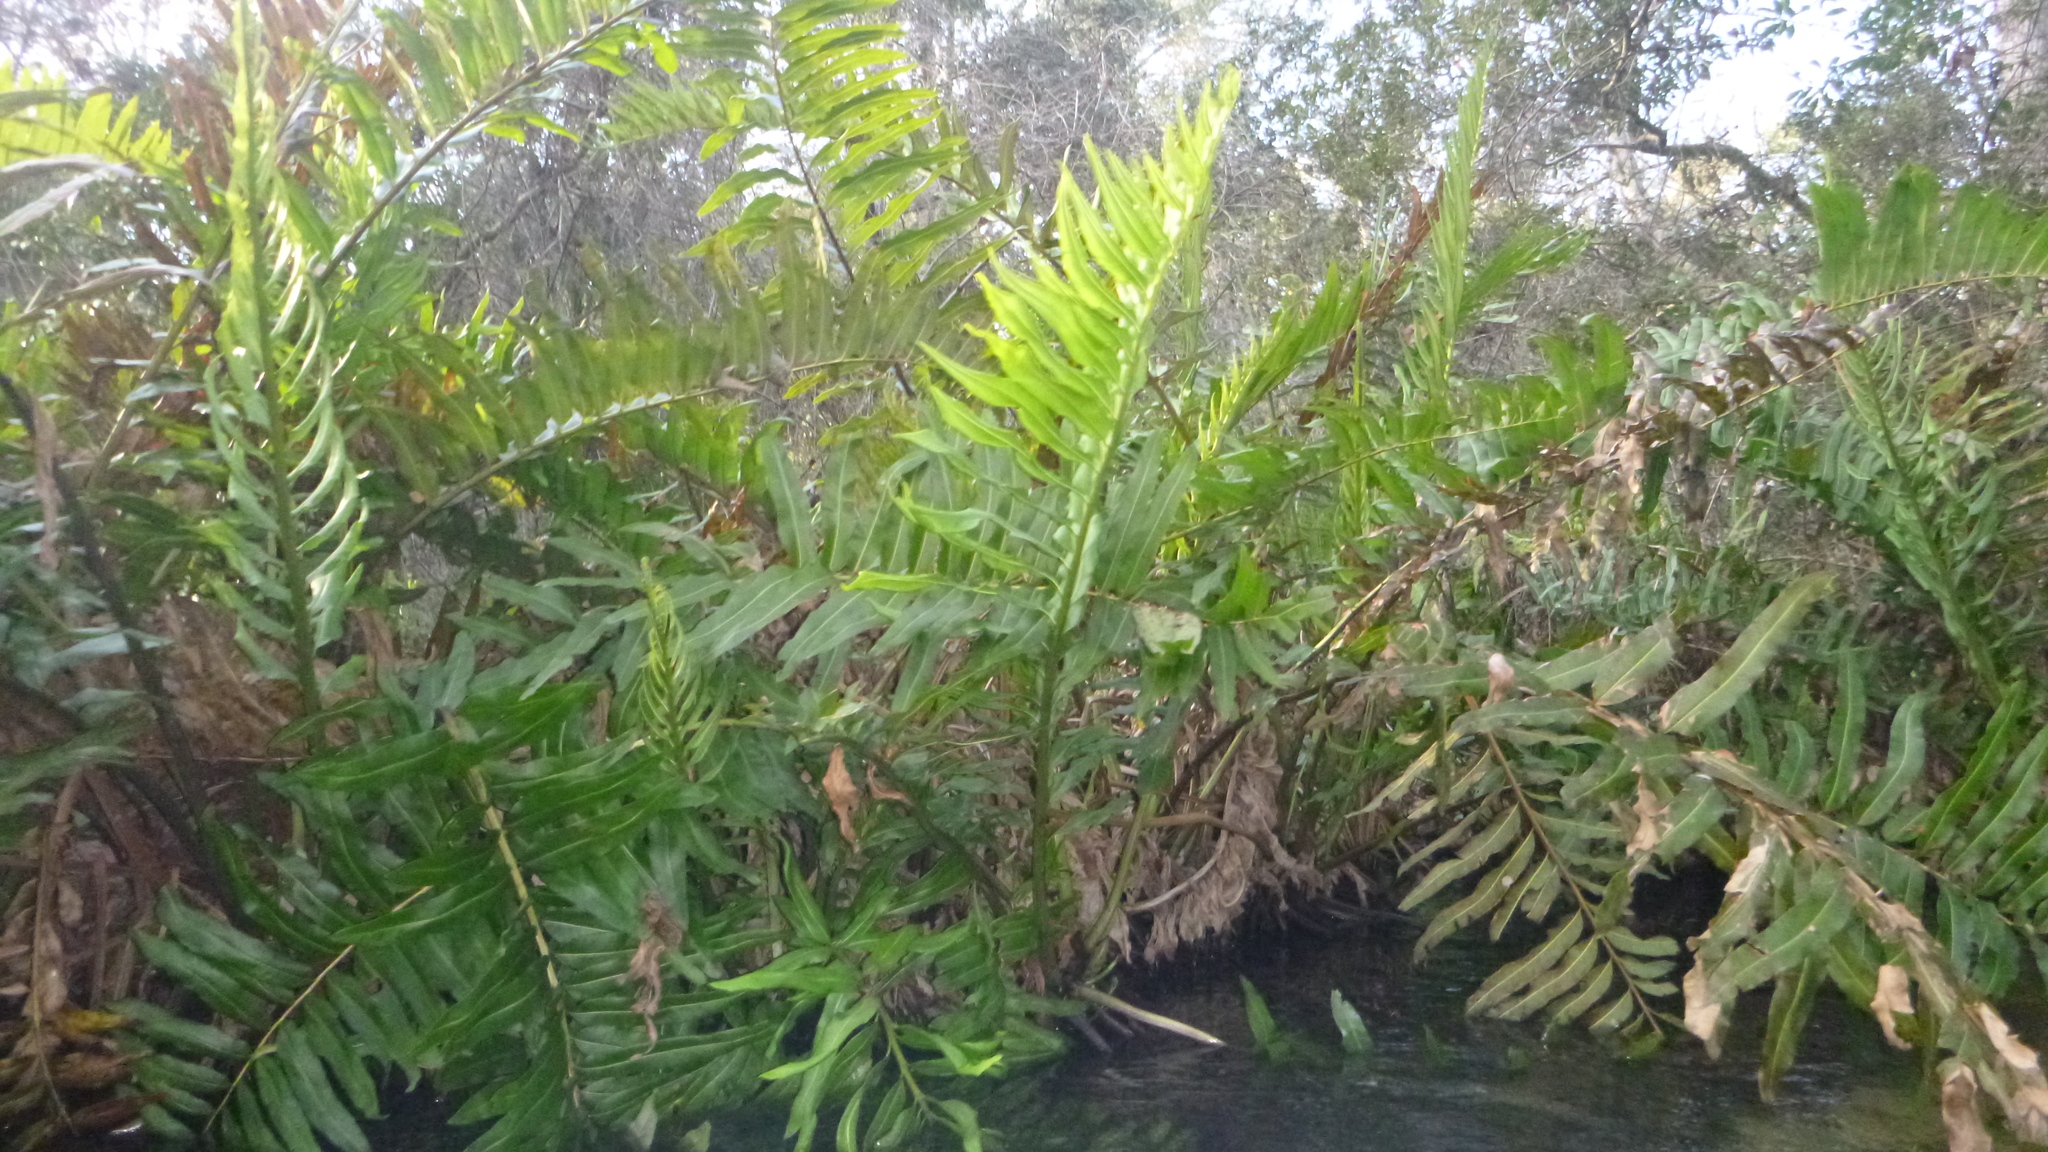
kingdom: Plantae
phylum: Tracheophyta
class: Polypodiopsida
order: Polypodiales
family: Pteridaceae
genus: Acrostichum
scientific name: Acrostichum danaeifolium
